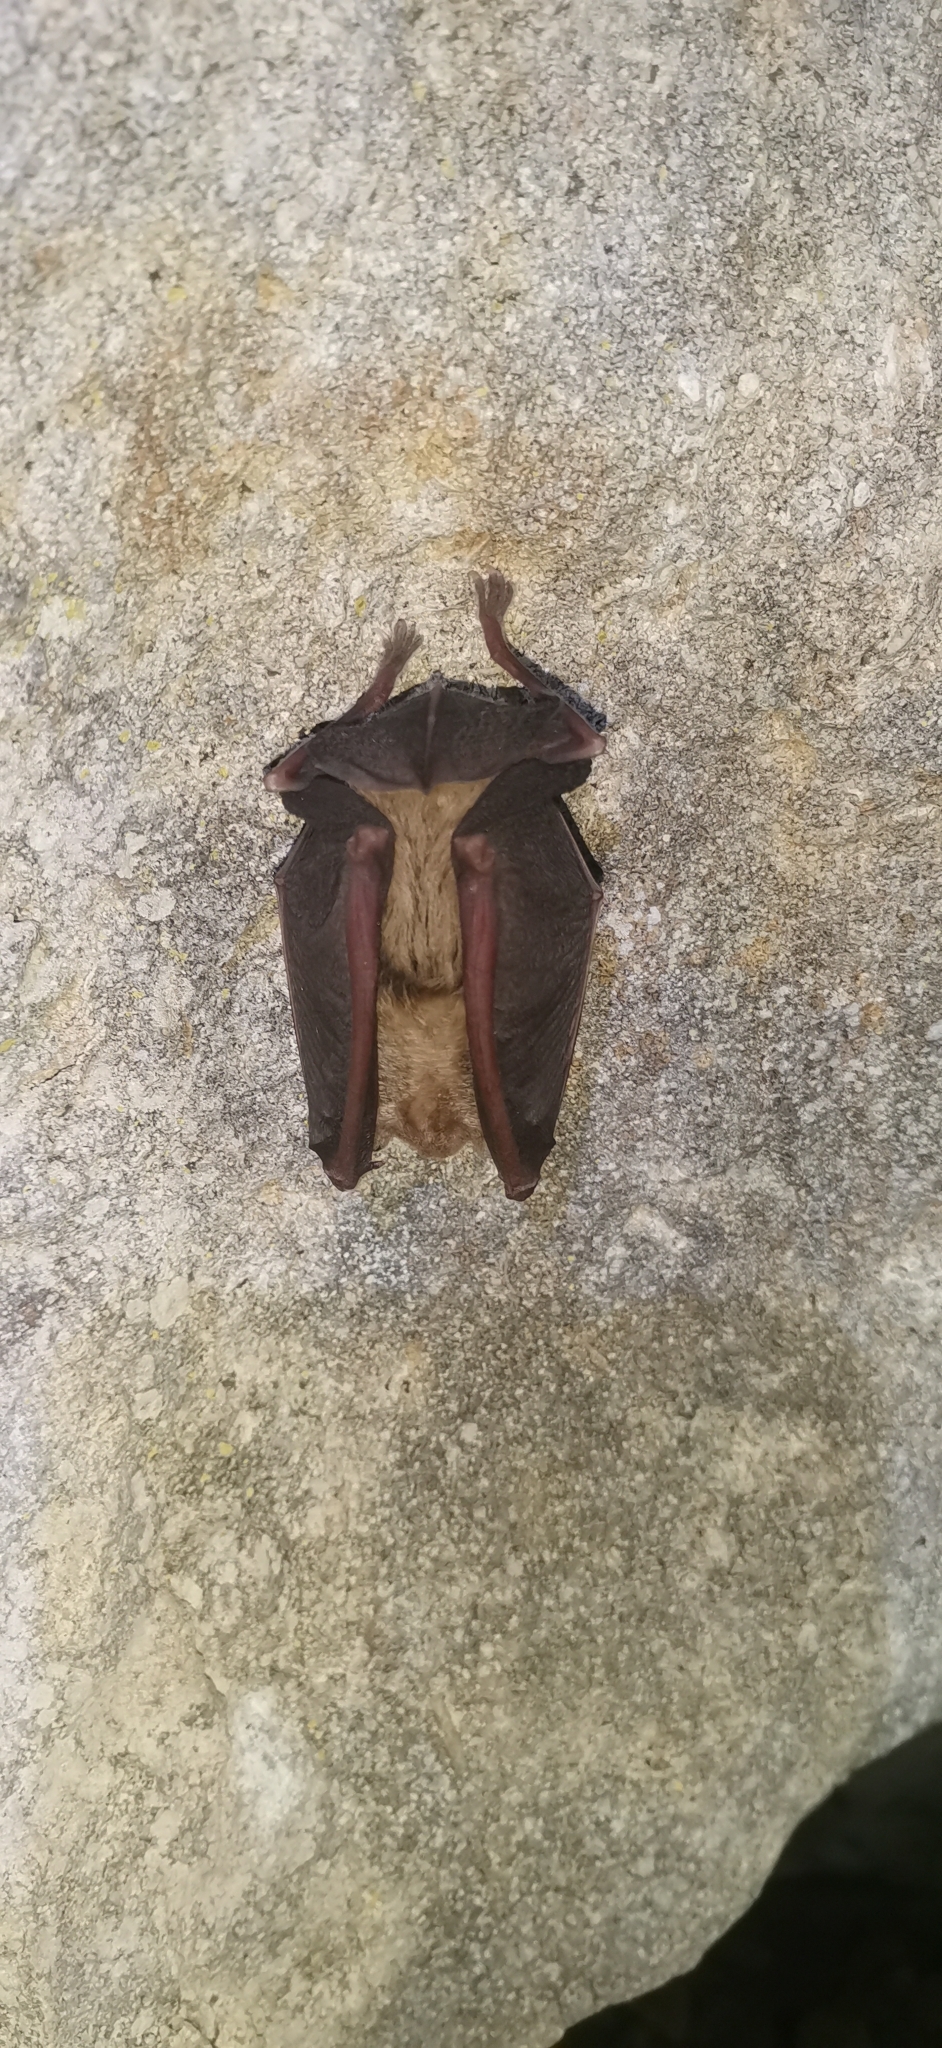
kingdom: Animalia
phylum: Chordata
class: Mammalia
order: Chiroptera
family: Rhinolophidae
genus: Rhinolophus
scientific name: Rhinolophus ferrumequinum
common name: Greater horseshoe bat
